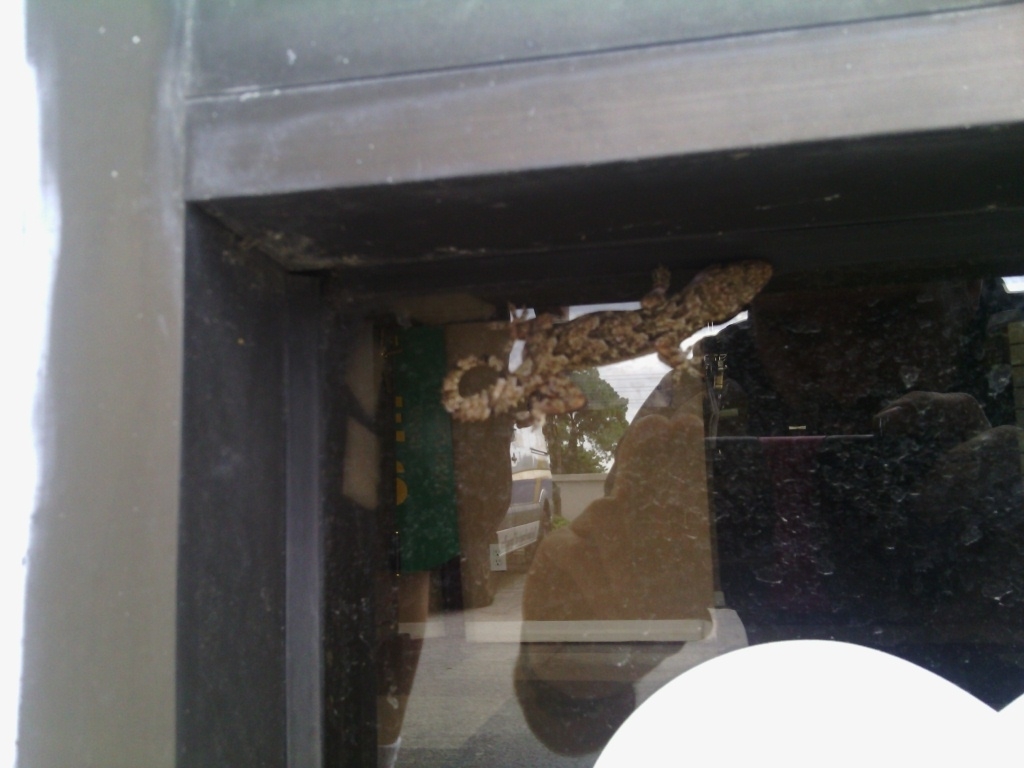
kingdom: Animalia
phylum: Chordata
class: Squamata
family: Gekkonidae
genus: Hemidactylus
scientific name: Hemidactylus mabouia
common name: House gecko
